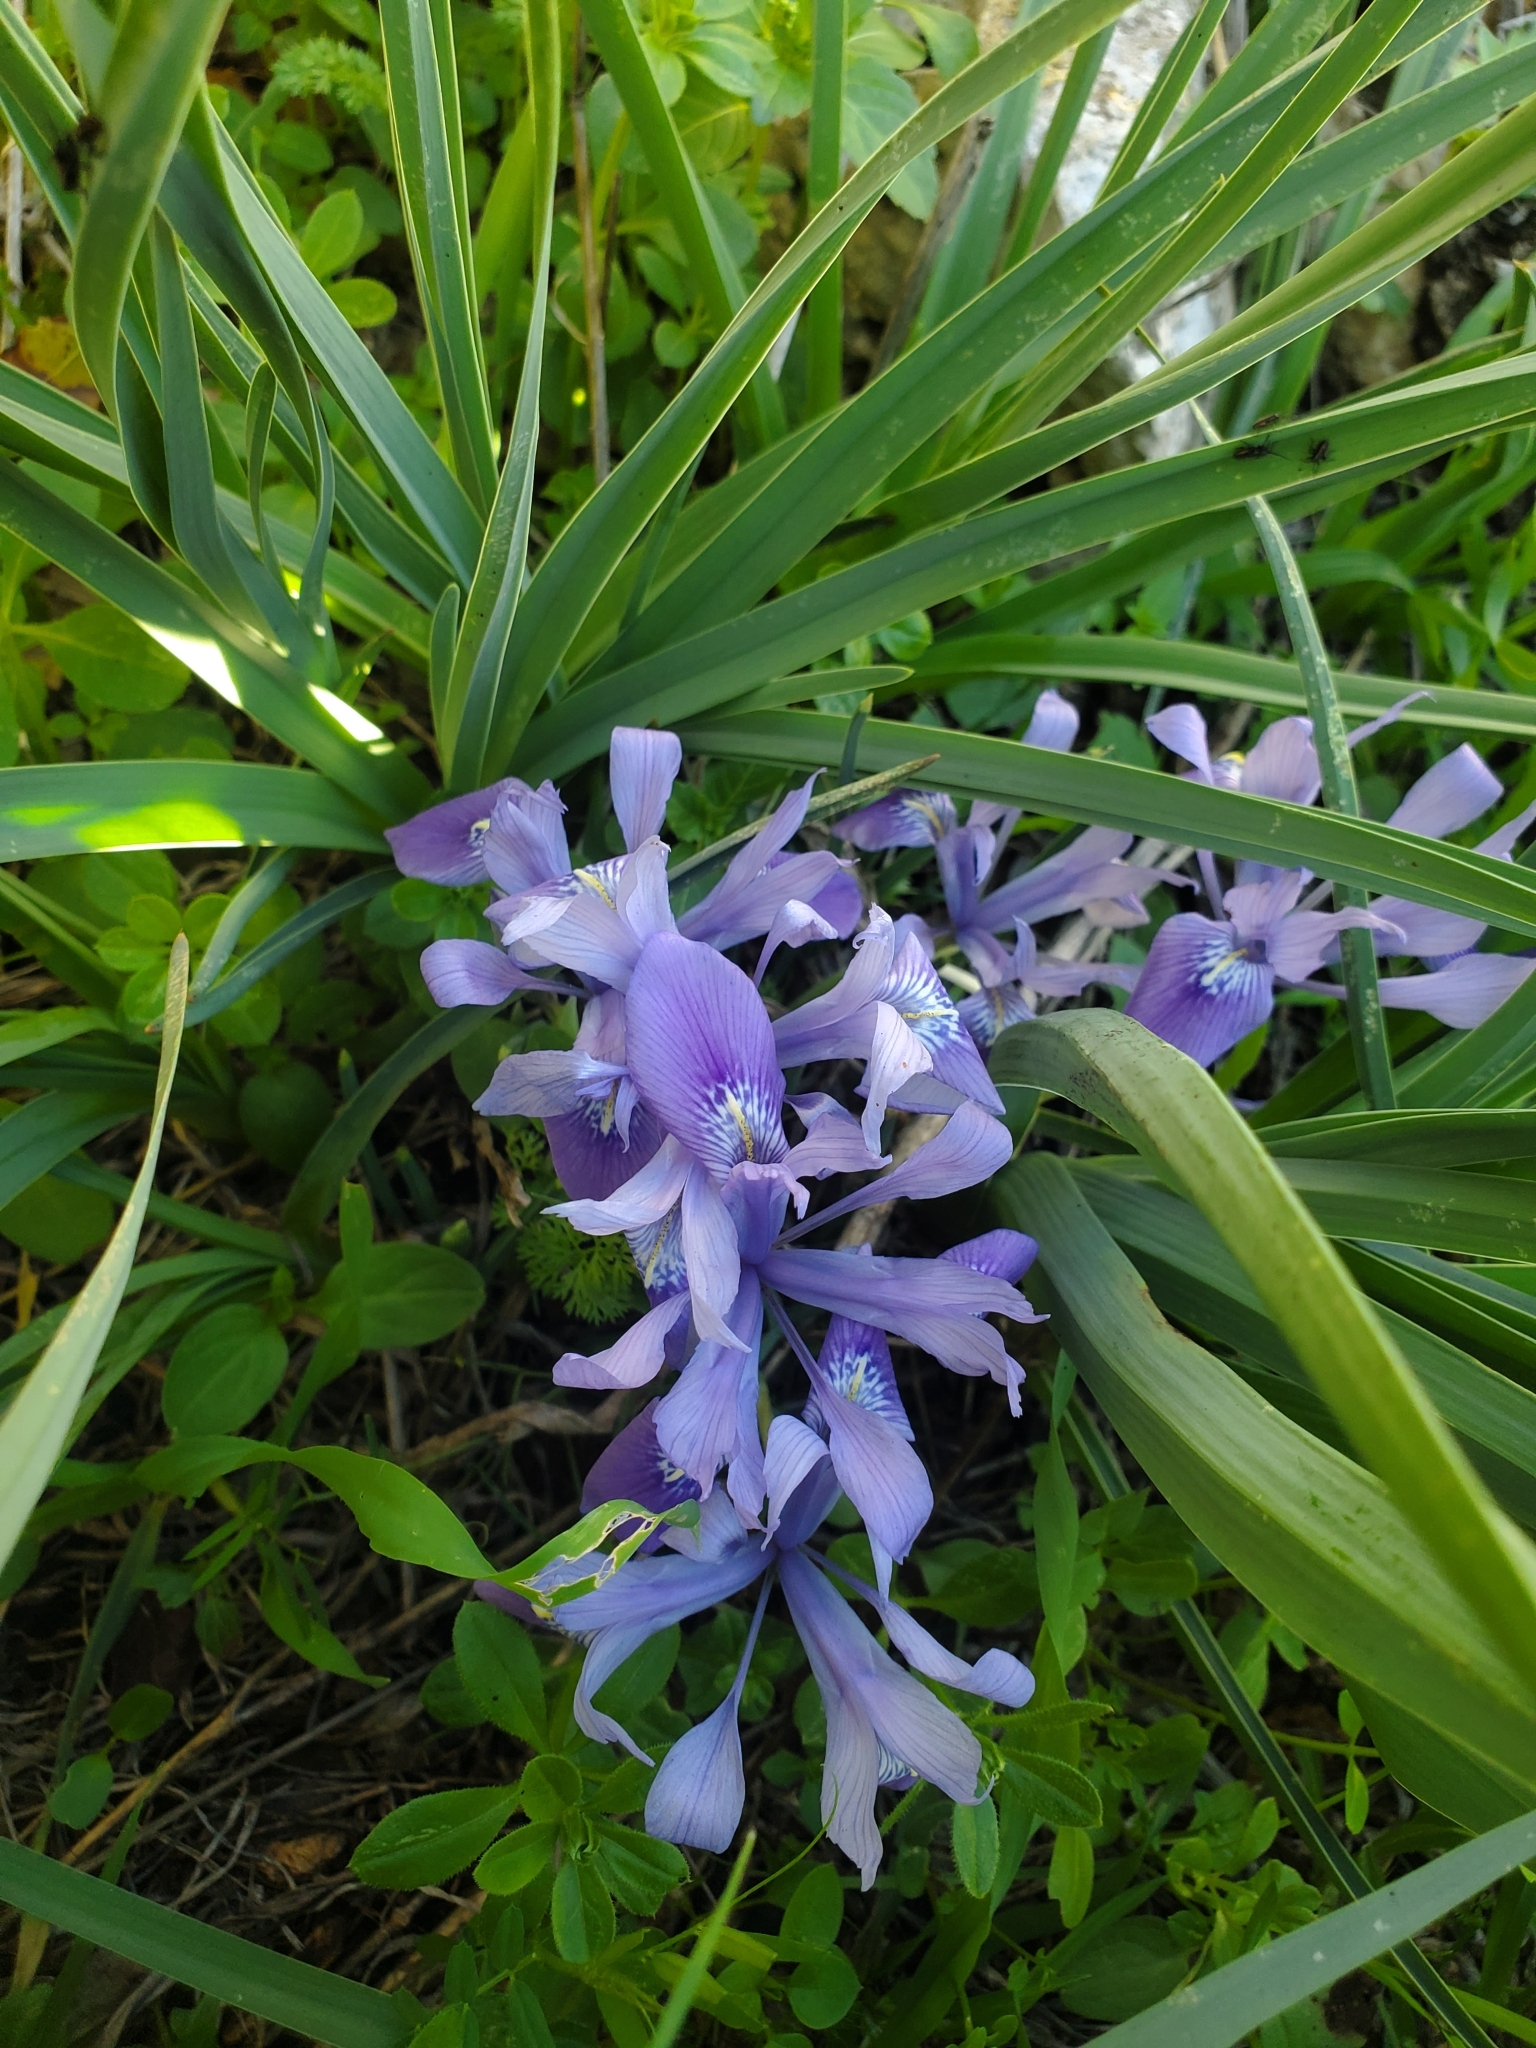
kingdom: Plantae
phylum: Tracheophyta
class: Liliopsida
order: Asparagales
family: Iridaceae
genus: Iris
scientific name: Iris vartanii
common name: Vartanii iris
